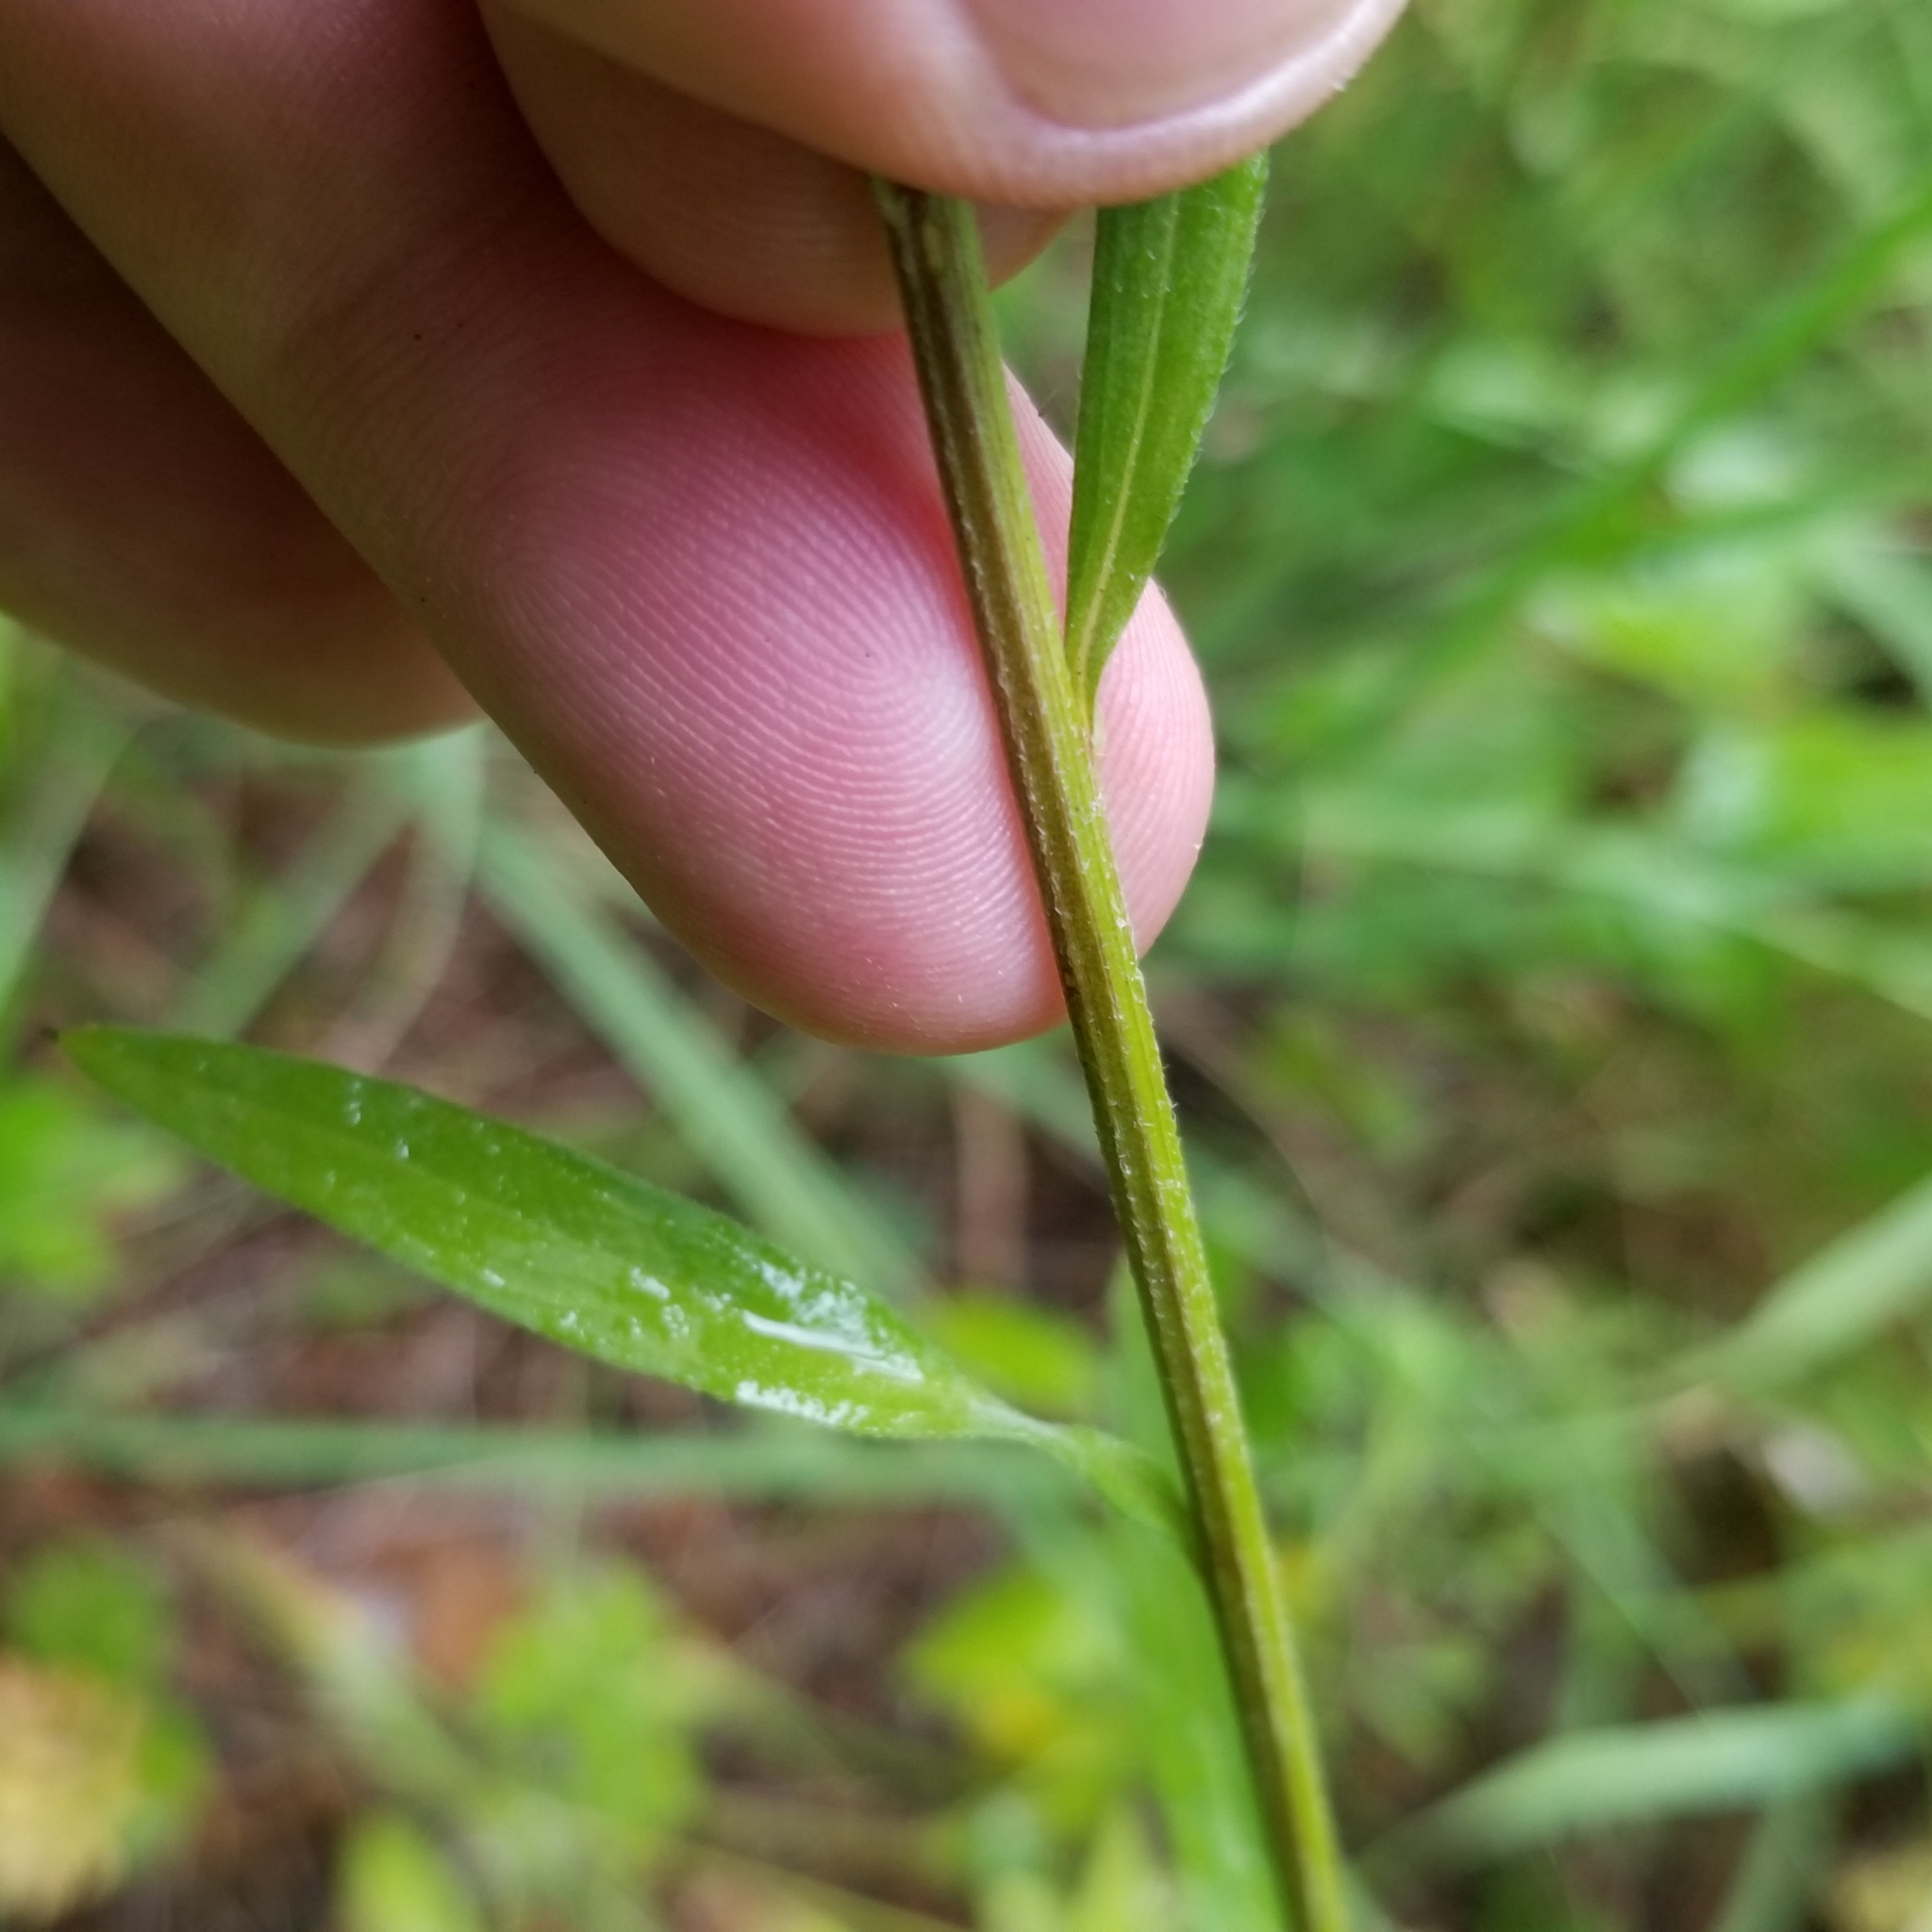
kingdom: Plantae
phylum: Tracheophyta
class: Magnoliopsida
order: Asterales
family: Asteraceae
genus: Erigeron
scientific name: Erigeron strigosus
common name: Common eastern fleabane
